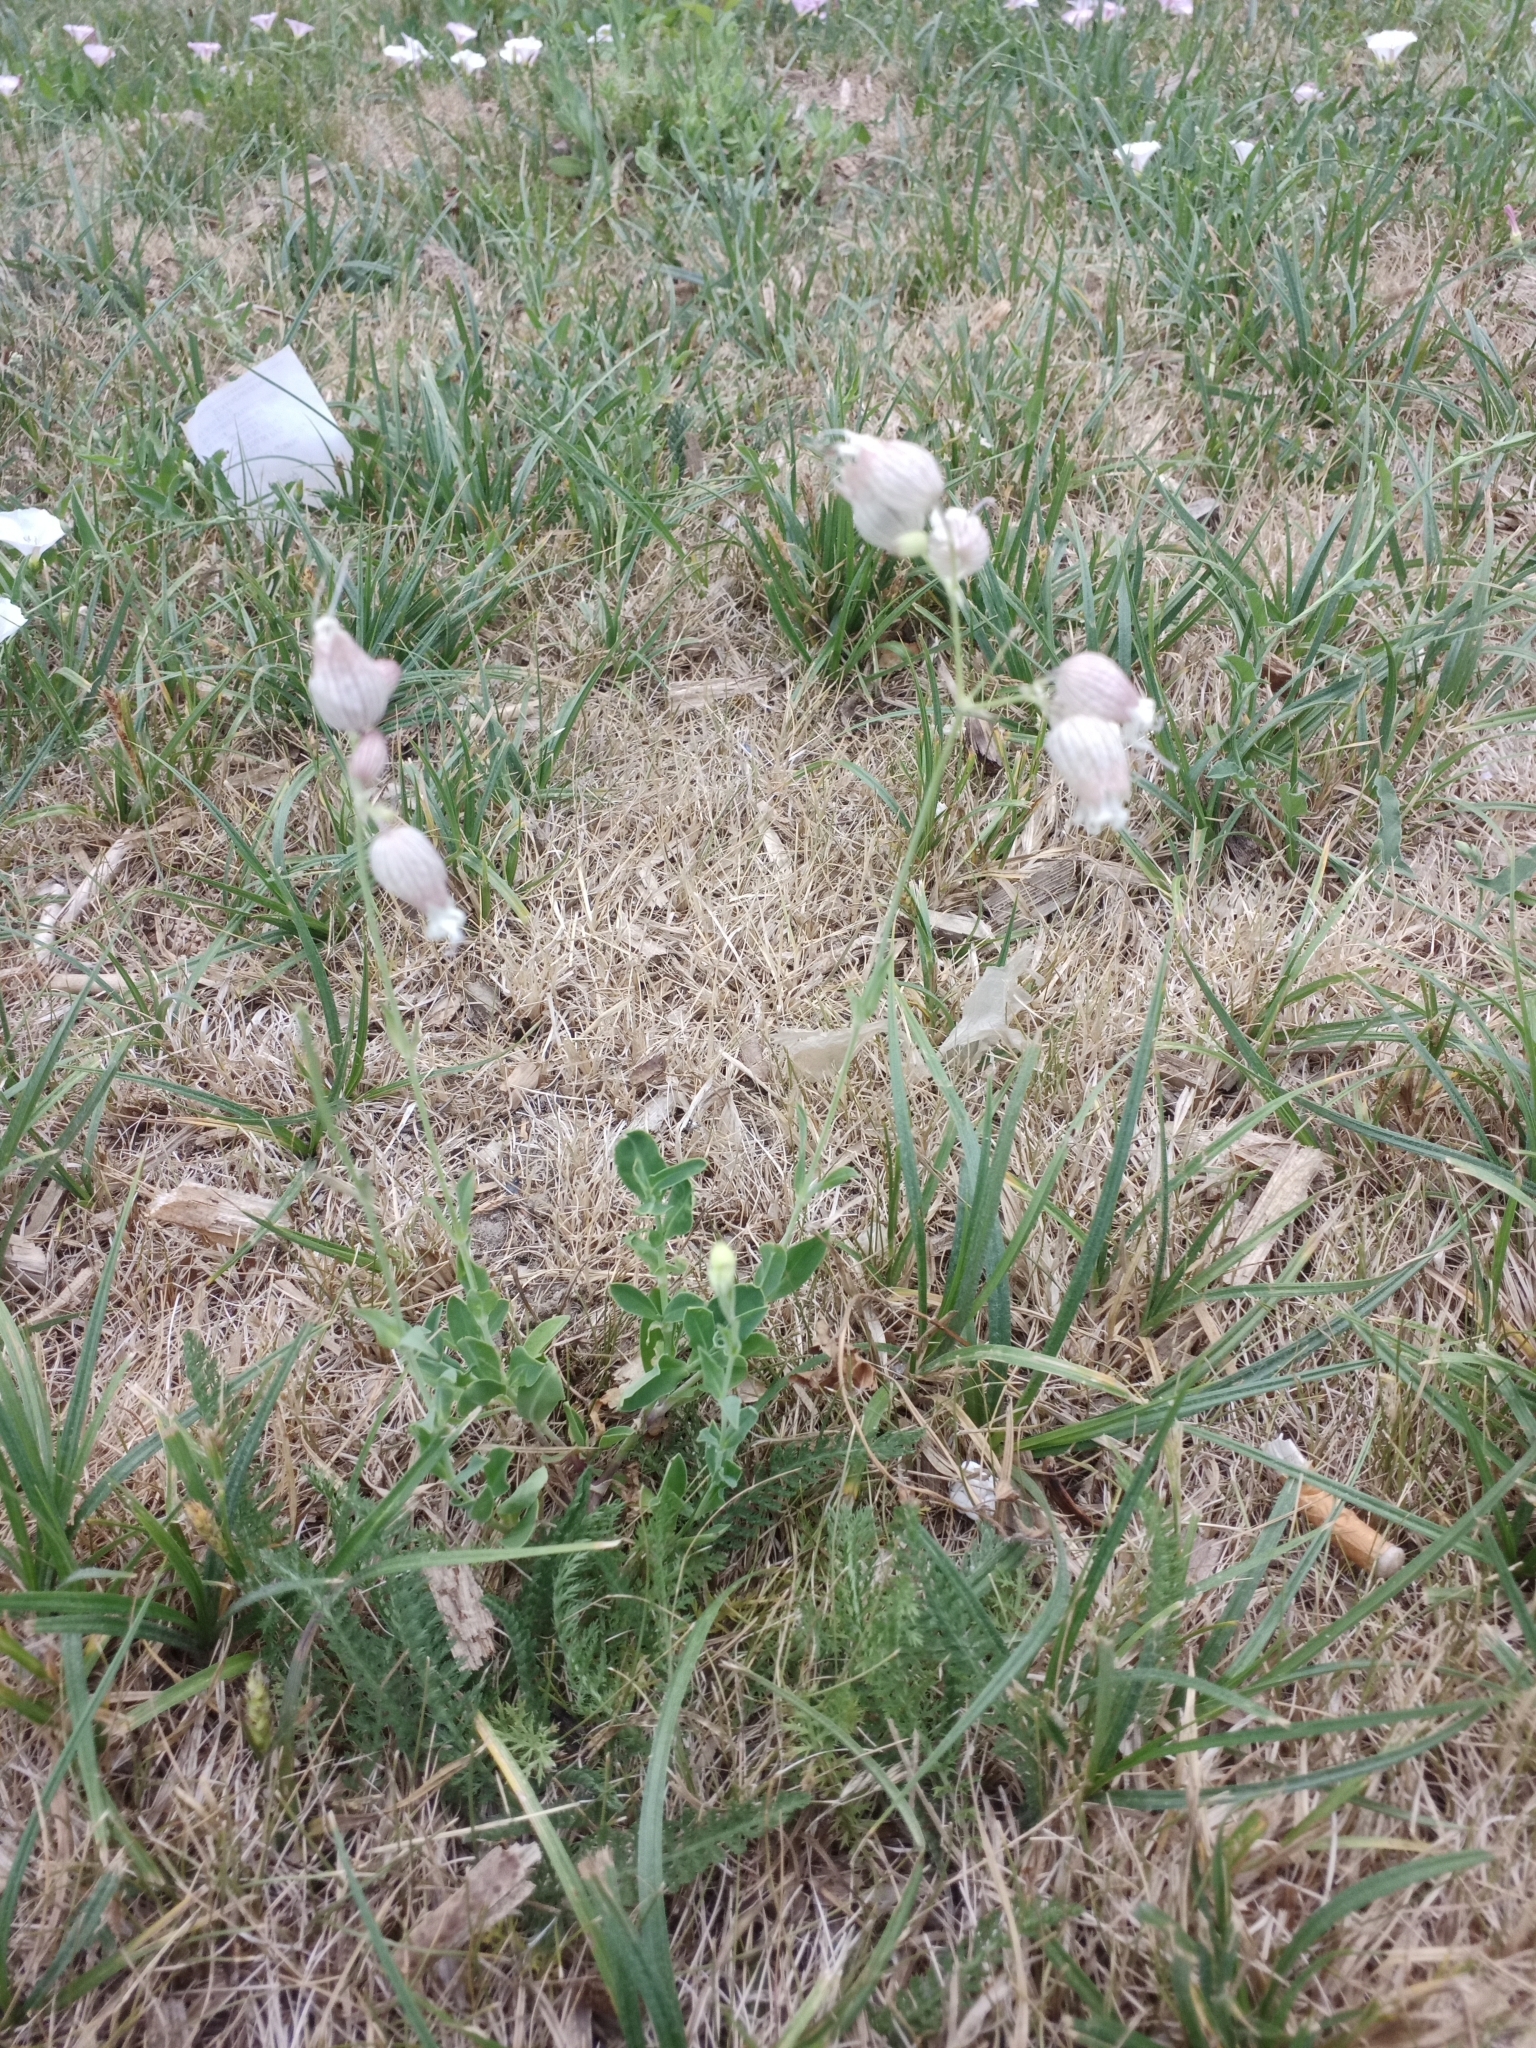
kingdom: Plantae
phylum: Tracheophyta
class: Magnoliopsida
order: Caryophyllales
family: Caryophyllaceae
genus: Silene
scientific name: Silene vulgaris
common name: Bladder campion
